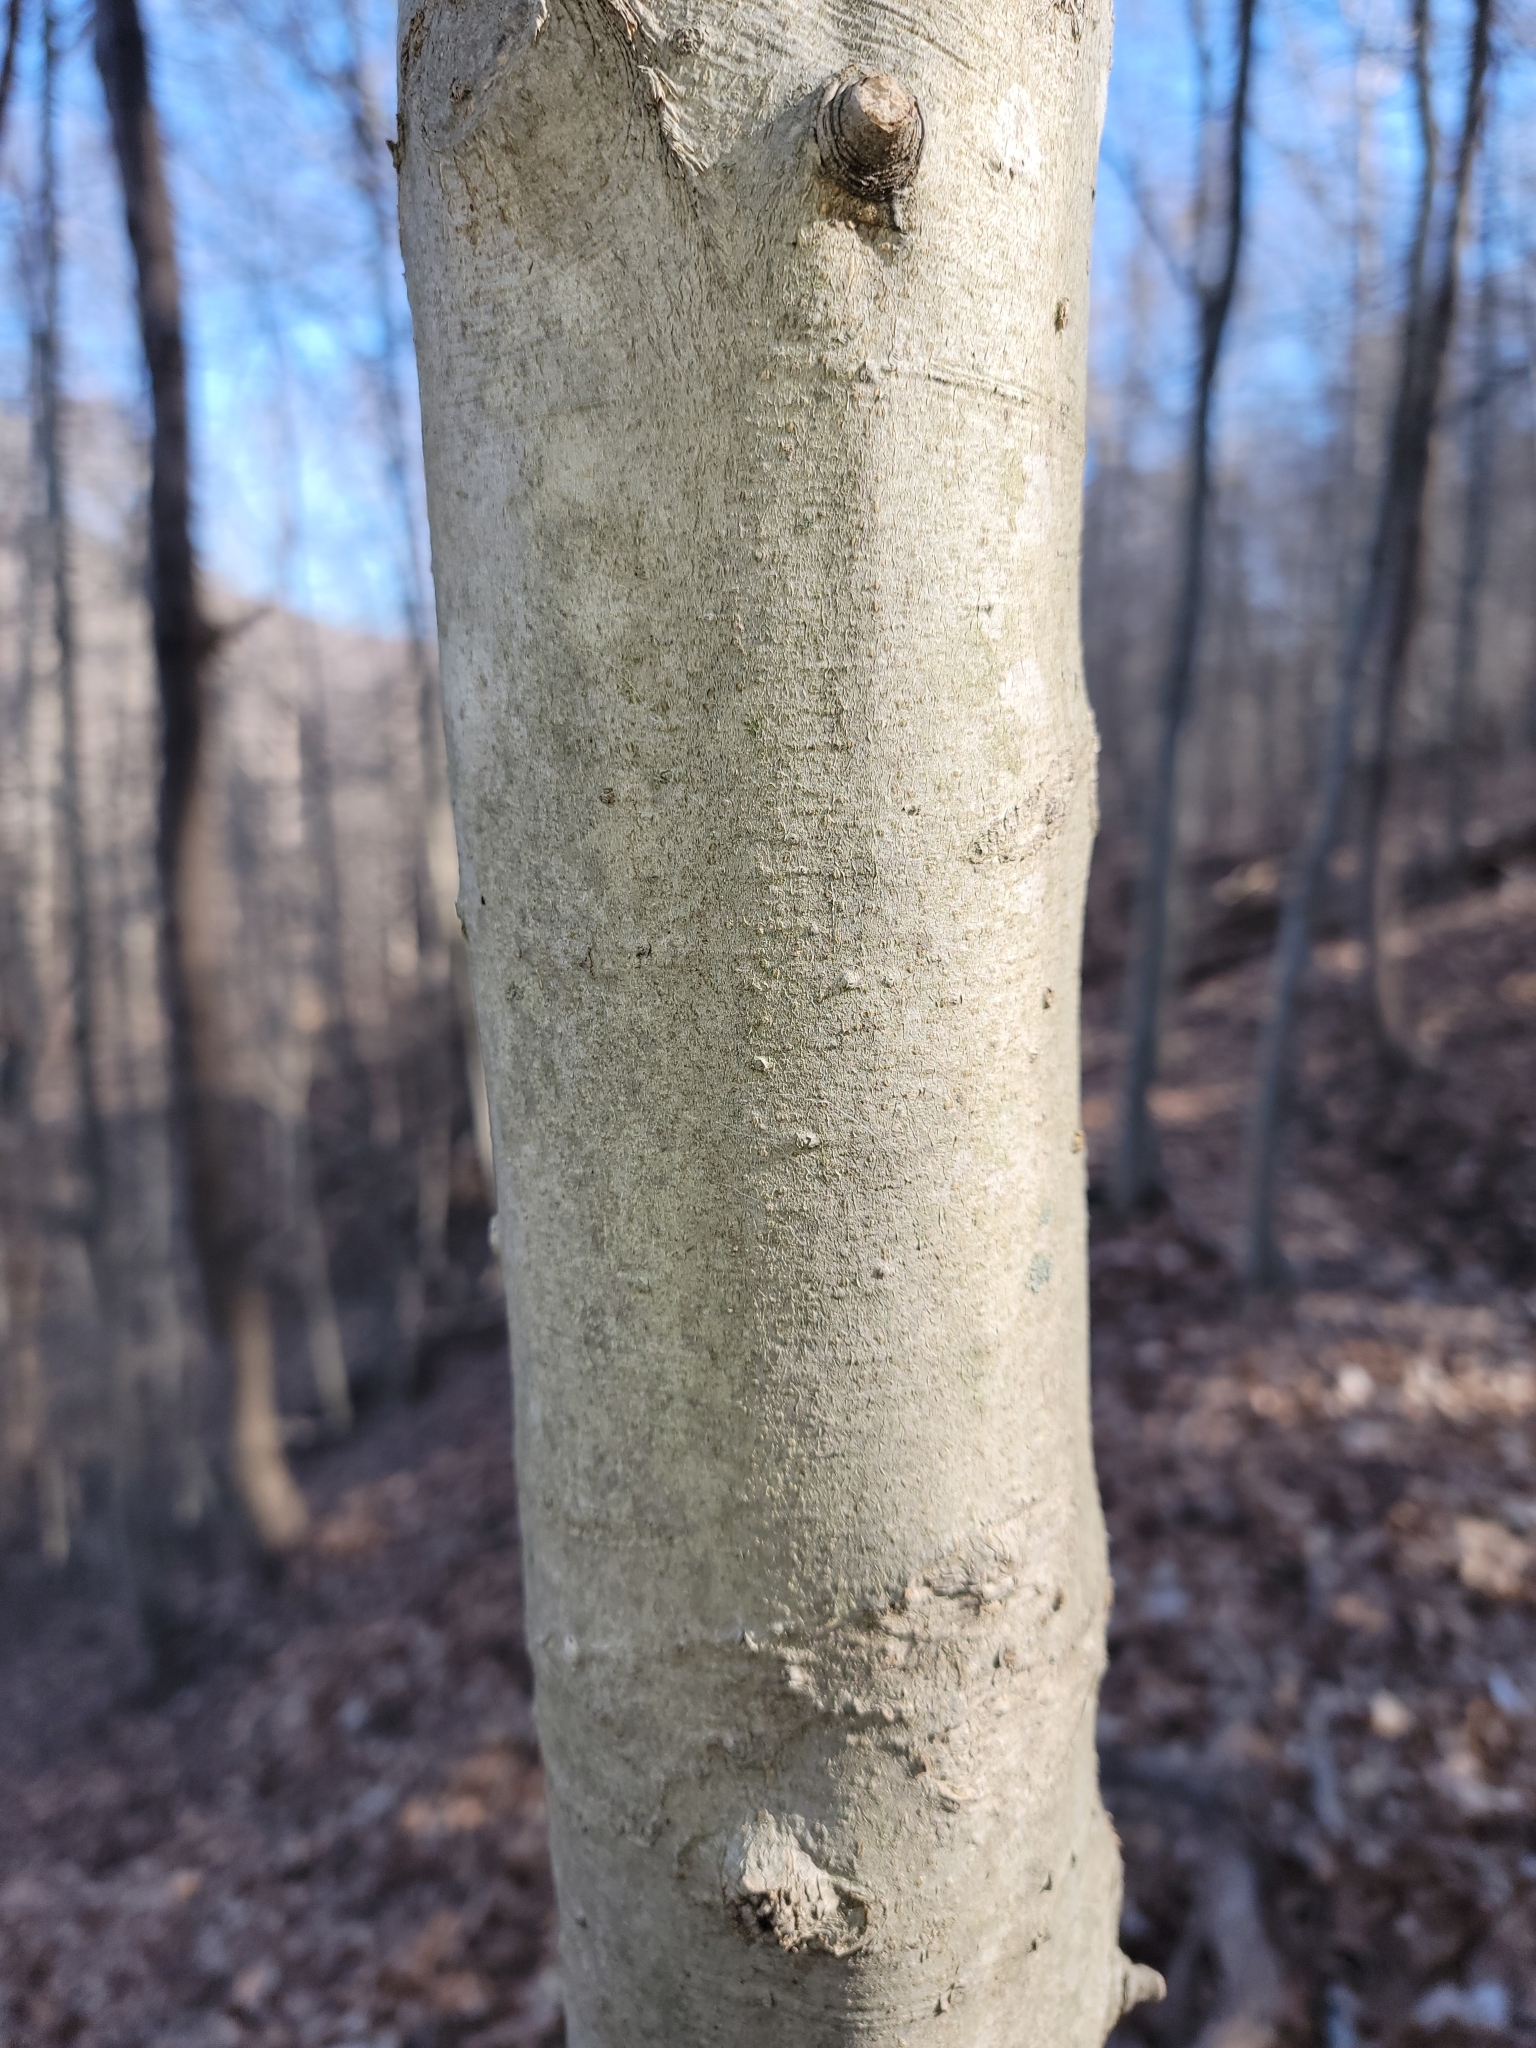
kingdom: Plantae
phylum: Tracheophyta
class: Magnoliopsida
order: Fagales
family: Fagaceae
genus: Fagus
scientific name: Fagus grandifolia
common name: American beech
